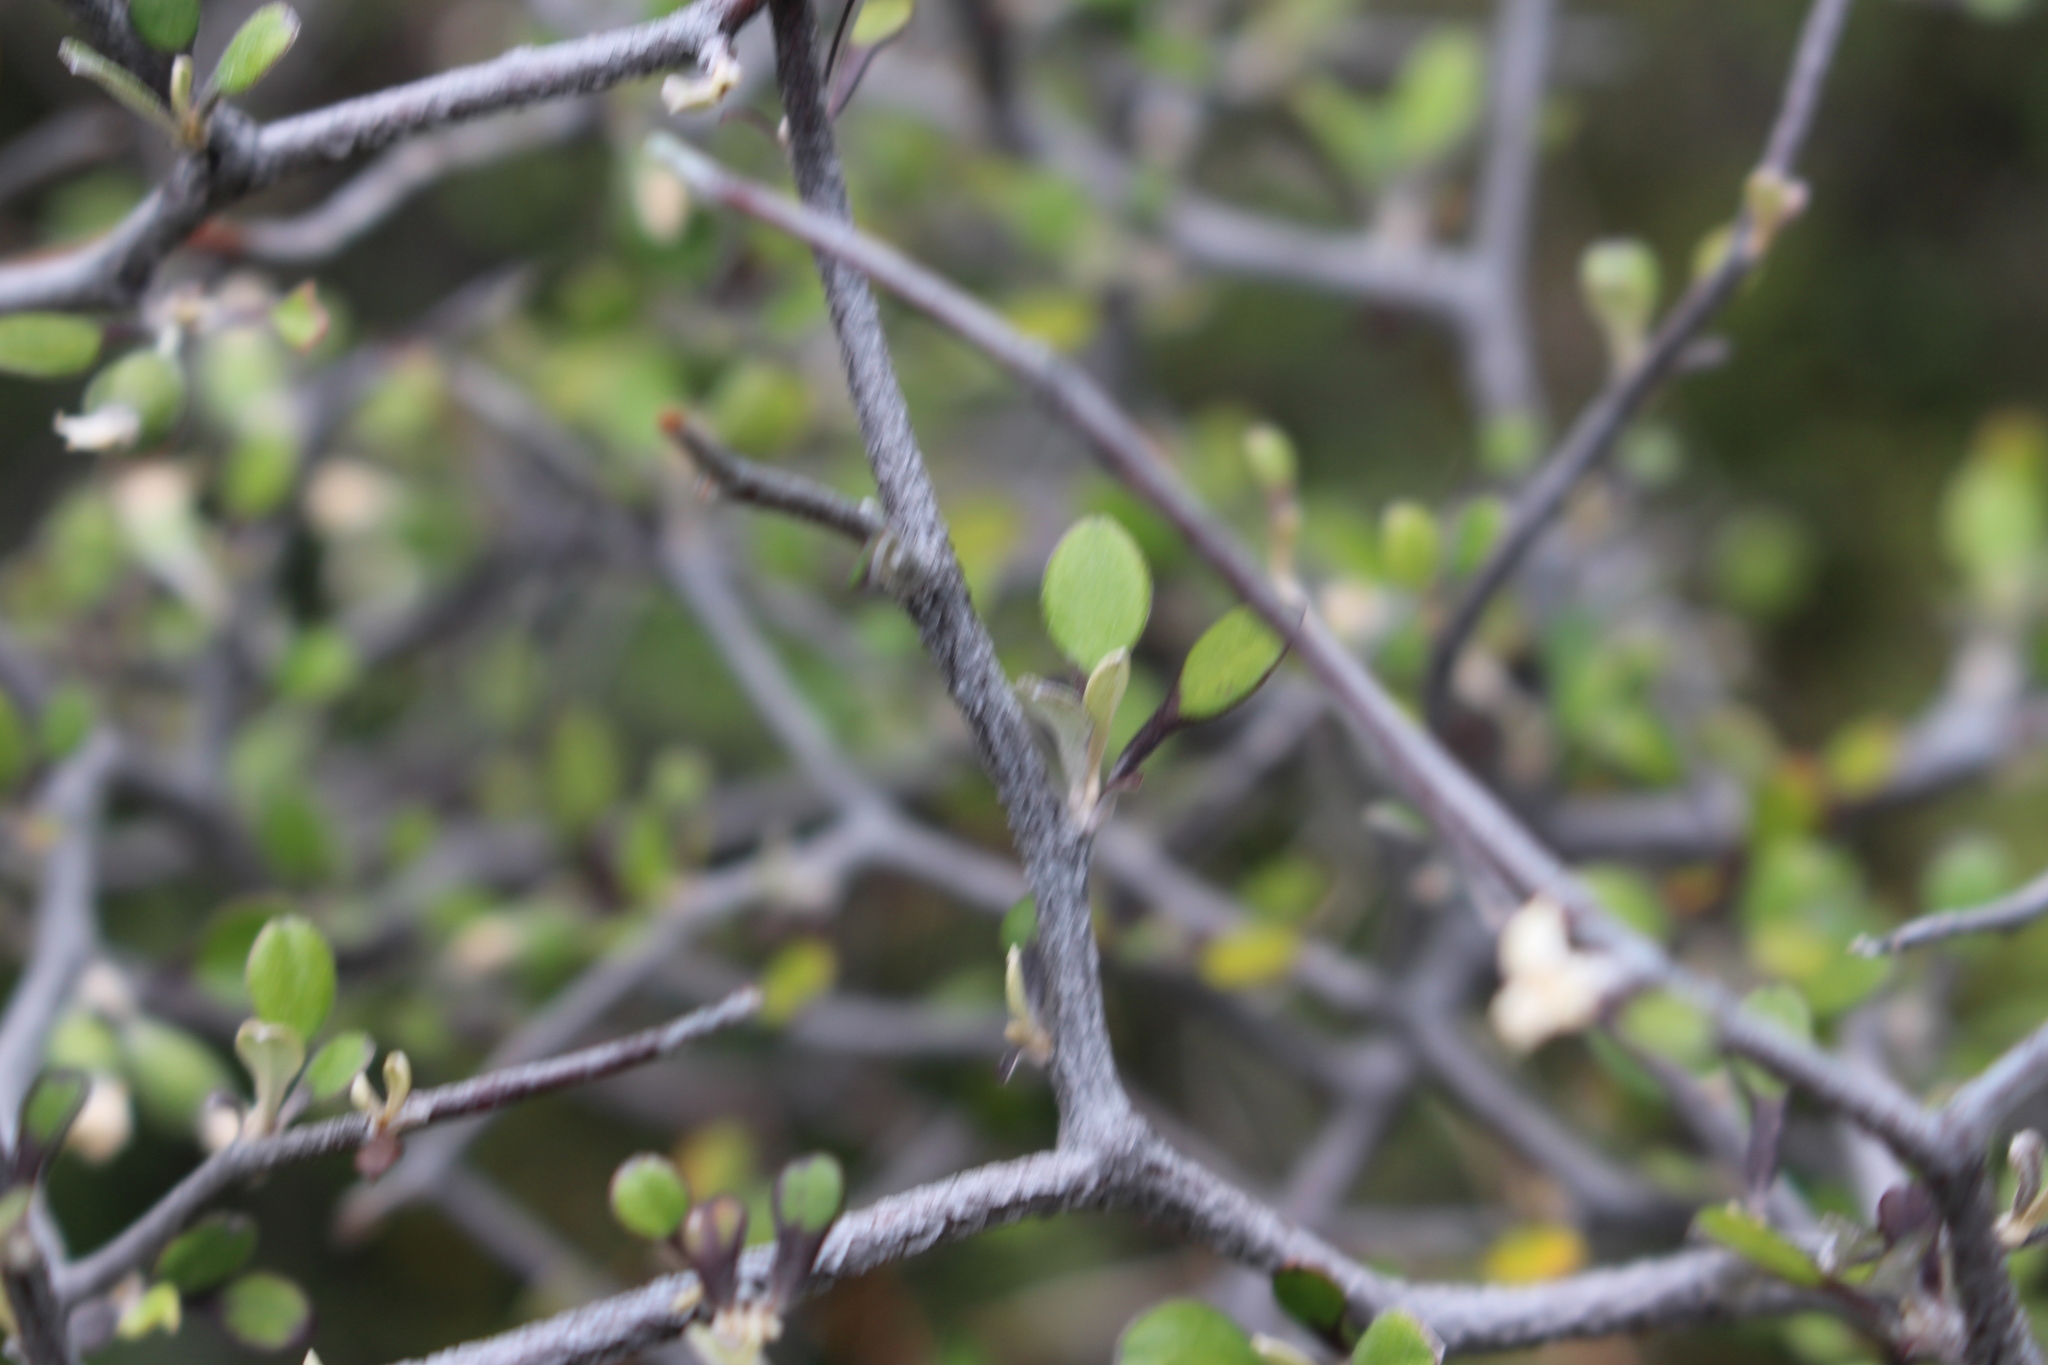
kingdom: Plantae
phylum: Tracheophyta
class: Magnoliopsida
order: Asterales
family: Argophyllaceae
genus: Corokia
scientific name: Corokia cotoneaster
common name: Wire nettingbush
